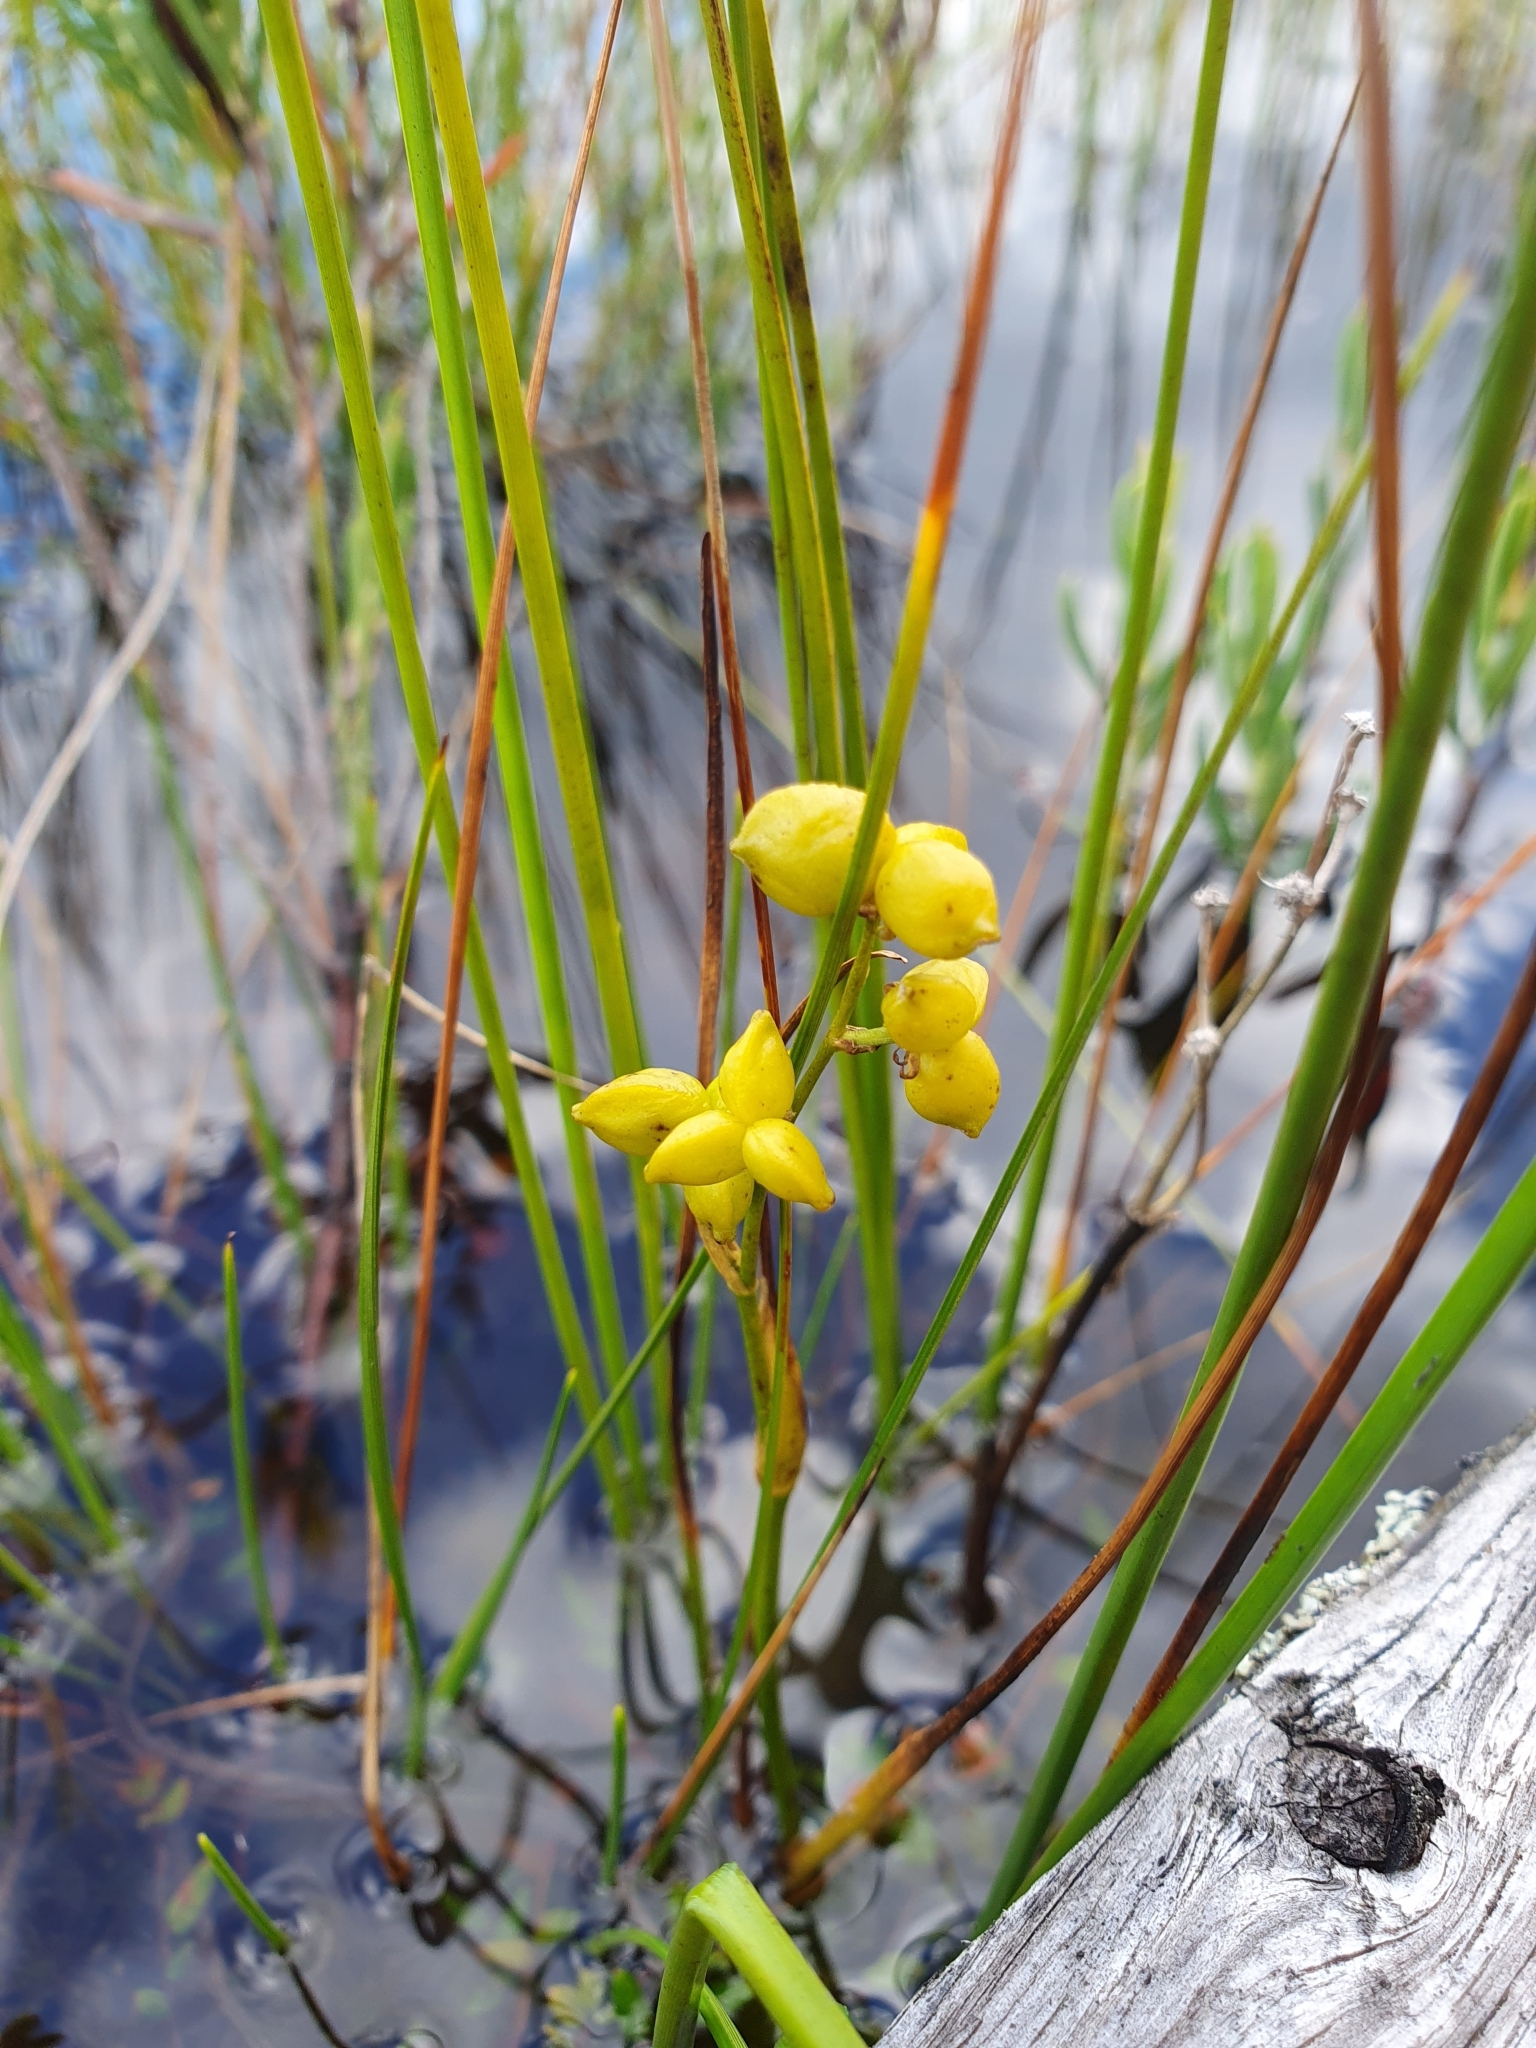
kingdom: Plantae
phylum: Tracheophyta
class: Liliopsida
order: Alismatales
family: Scheuchzeriaceae
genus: Scheuchzeria
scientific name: Scheuchzeria palustris
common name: Rannoch-rush
